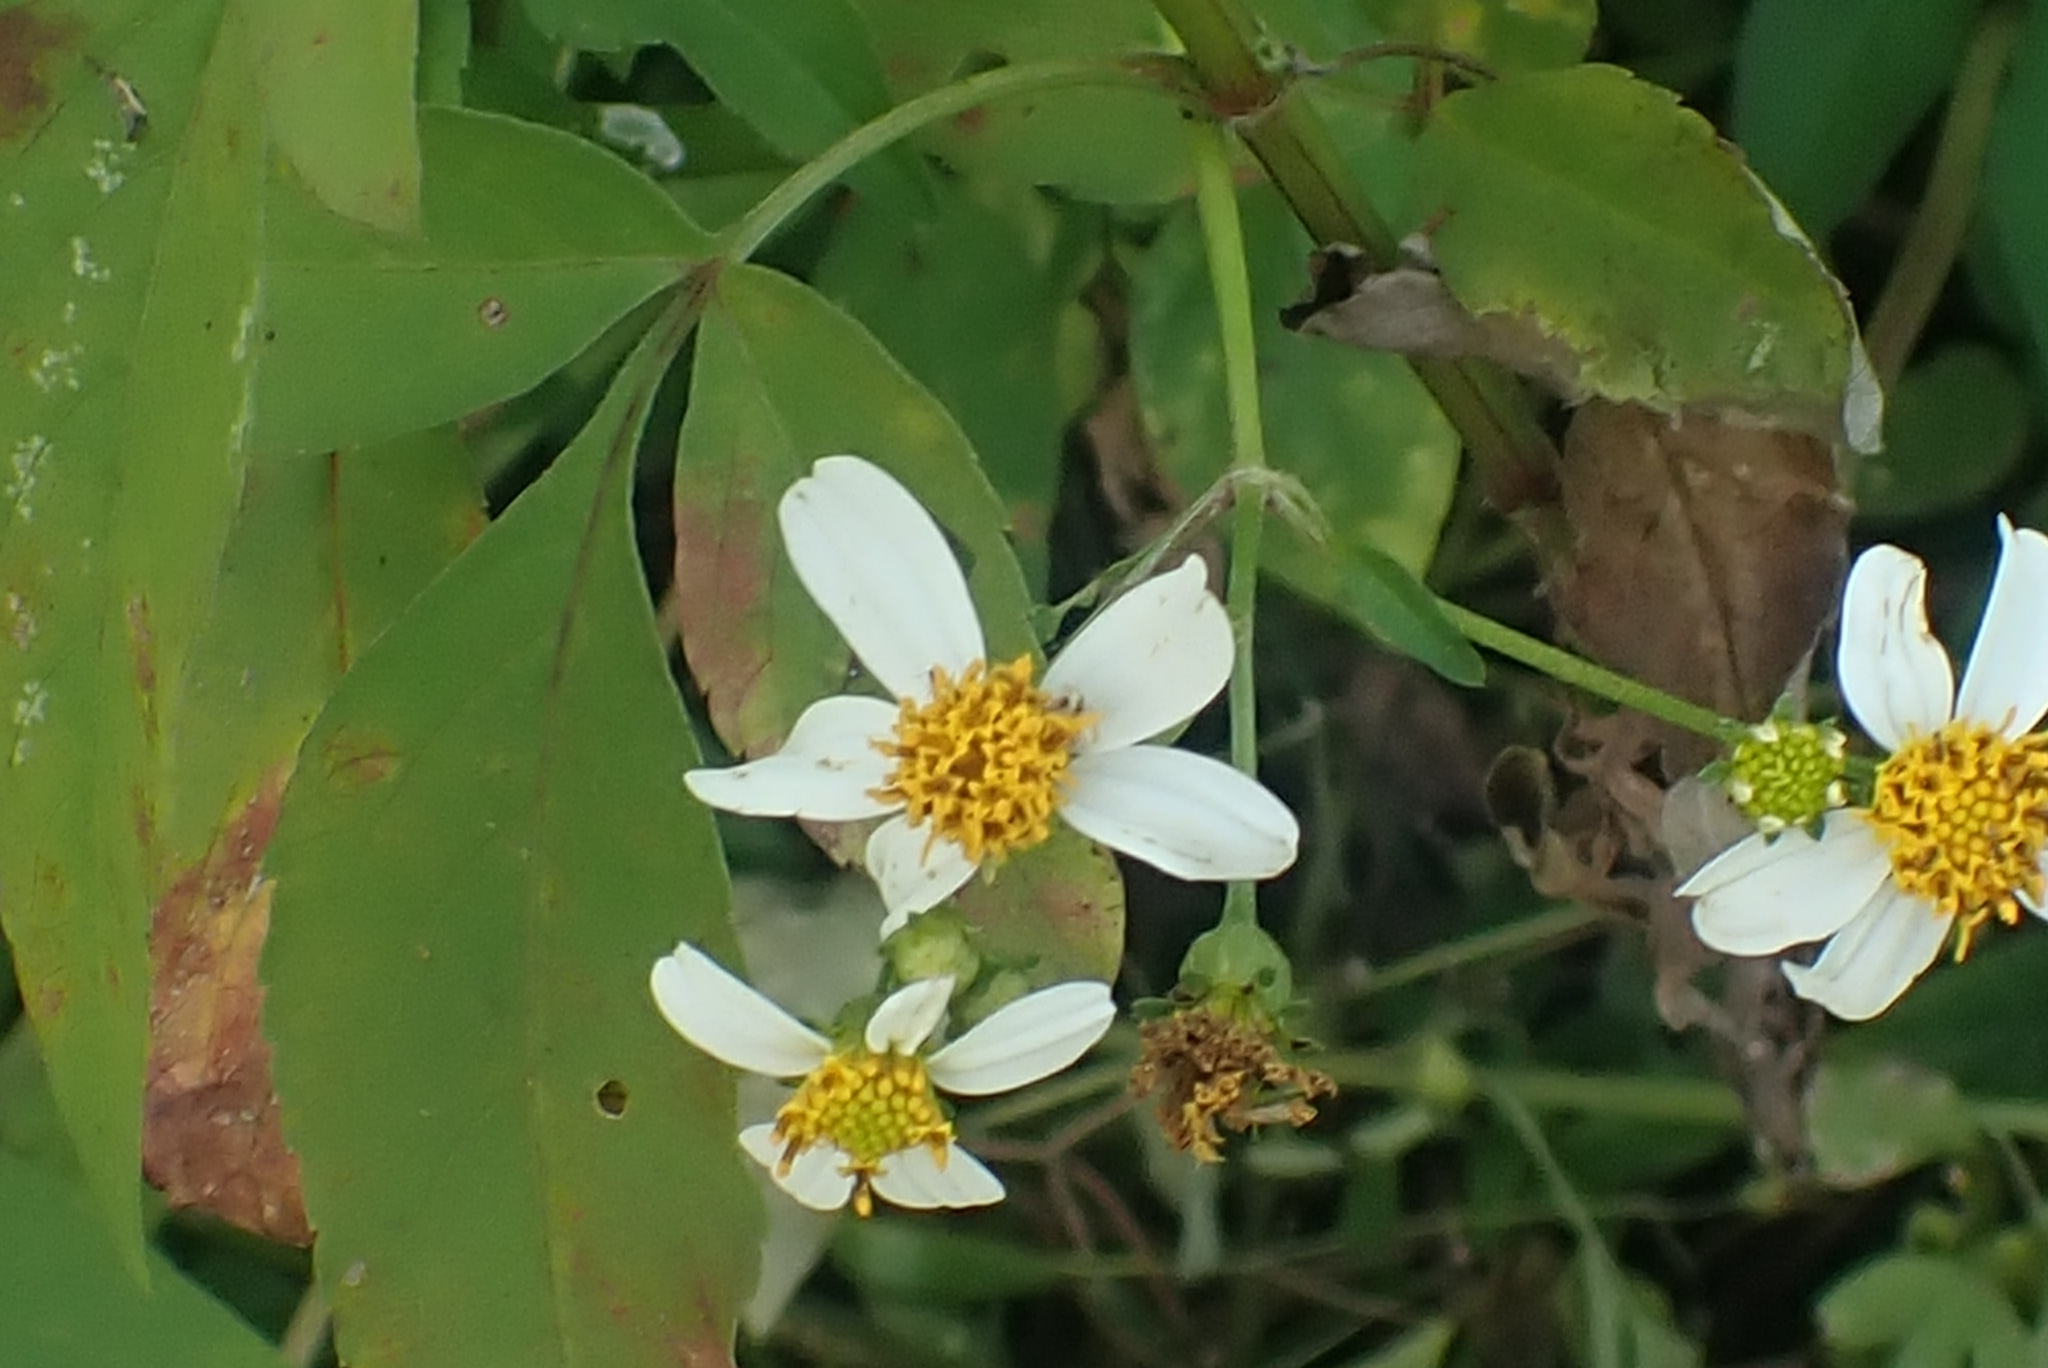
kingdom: Plantae
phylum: Tracheophyta
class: Magnoliopsida
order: Asterales
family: Asteraceae
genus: Bidens
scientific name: Bidens pilosa
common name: Black-jack
